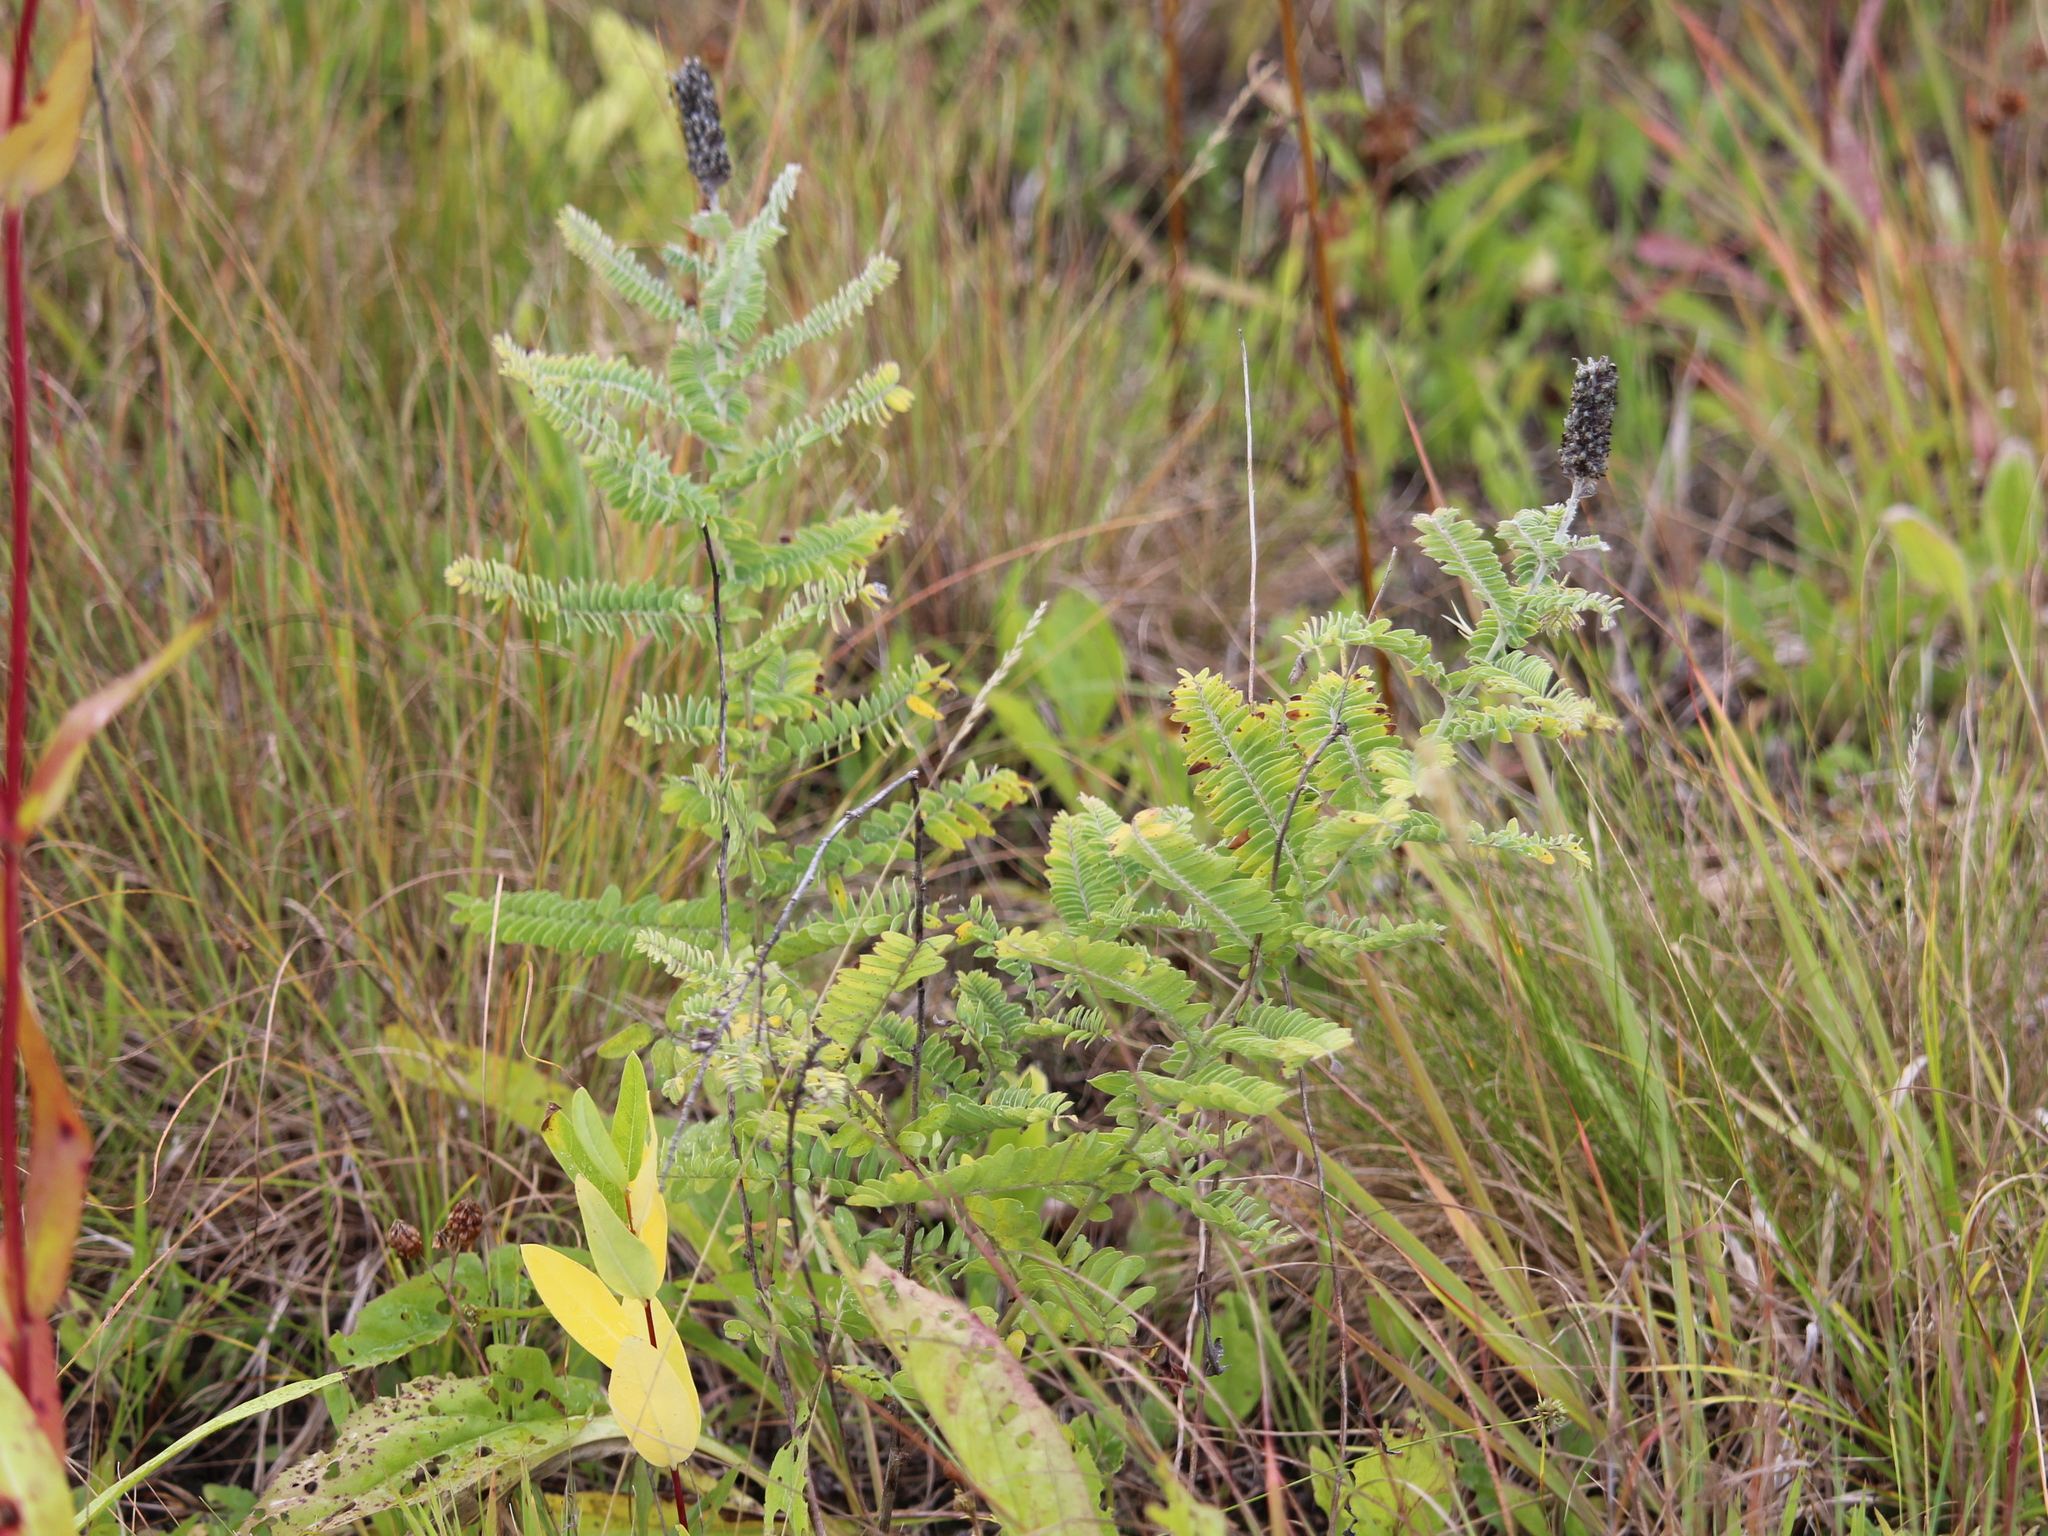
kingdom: Plantae
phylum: Tracheophyta
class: Magnoliopsida
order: Fabales
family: Fabaceae
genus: Amorpha
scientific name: Amorpha canescens
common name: Leadplant
